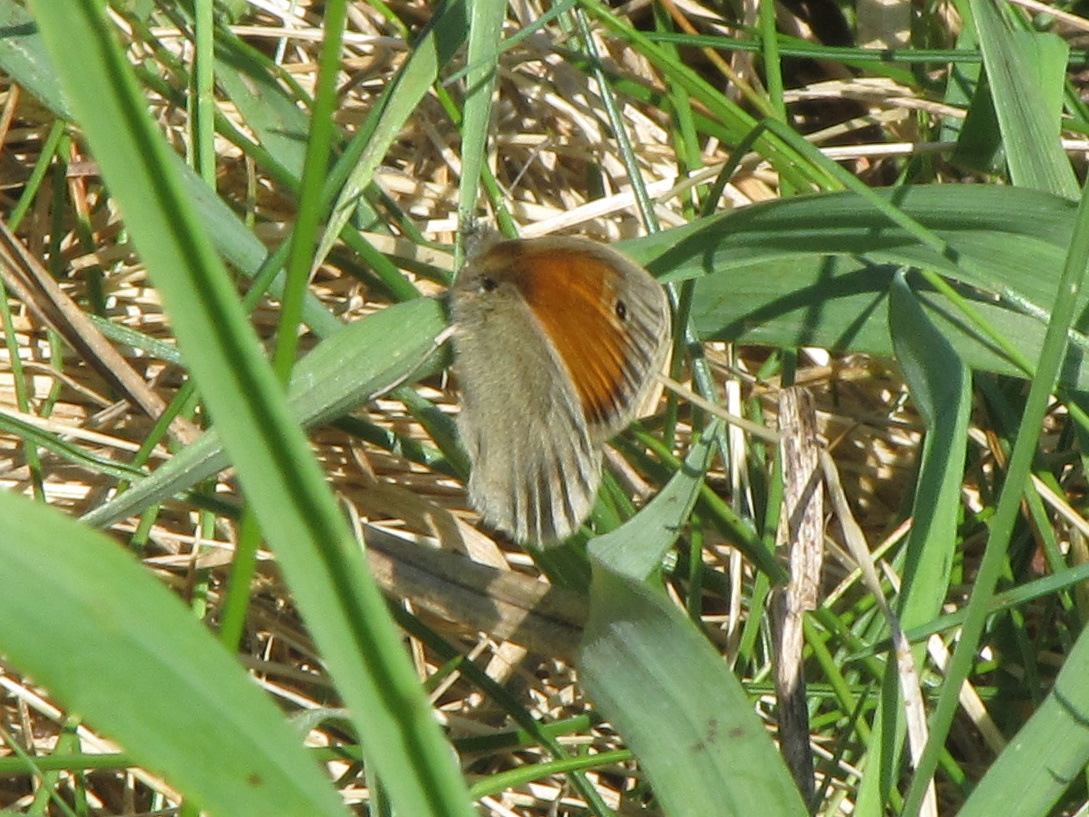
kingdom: Animalia
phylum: Arthropoda
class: Insecta
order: Lepidoptera
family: Nymphalidae
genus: Coenonympha
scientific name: Coenonympha pamphilus
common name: Small heath
